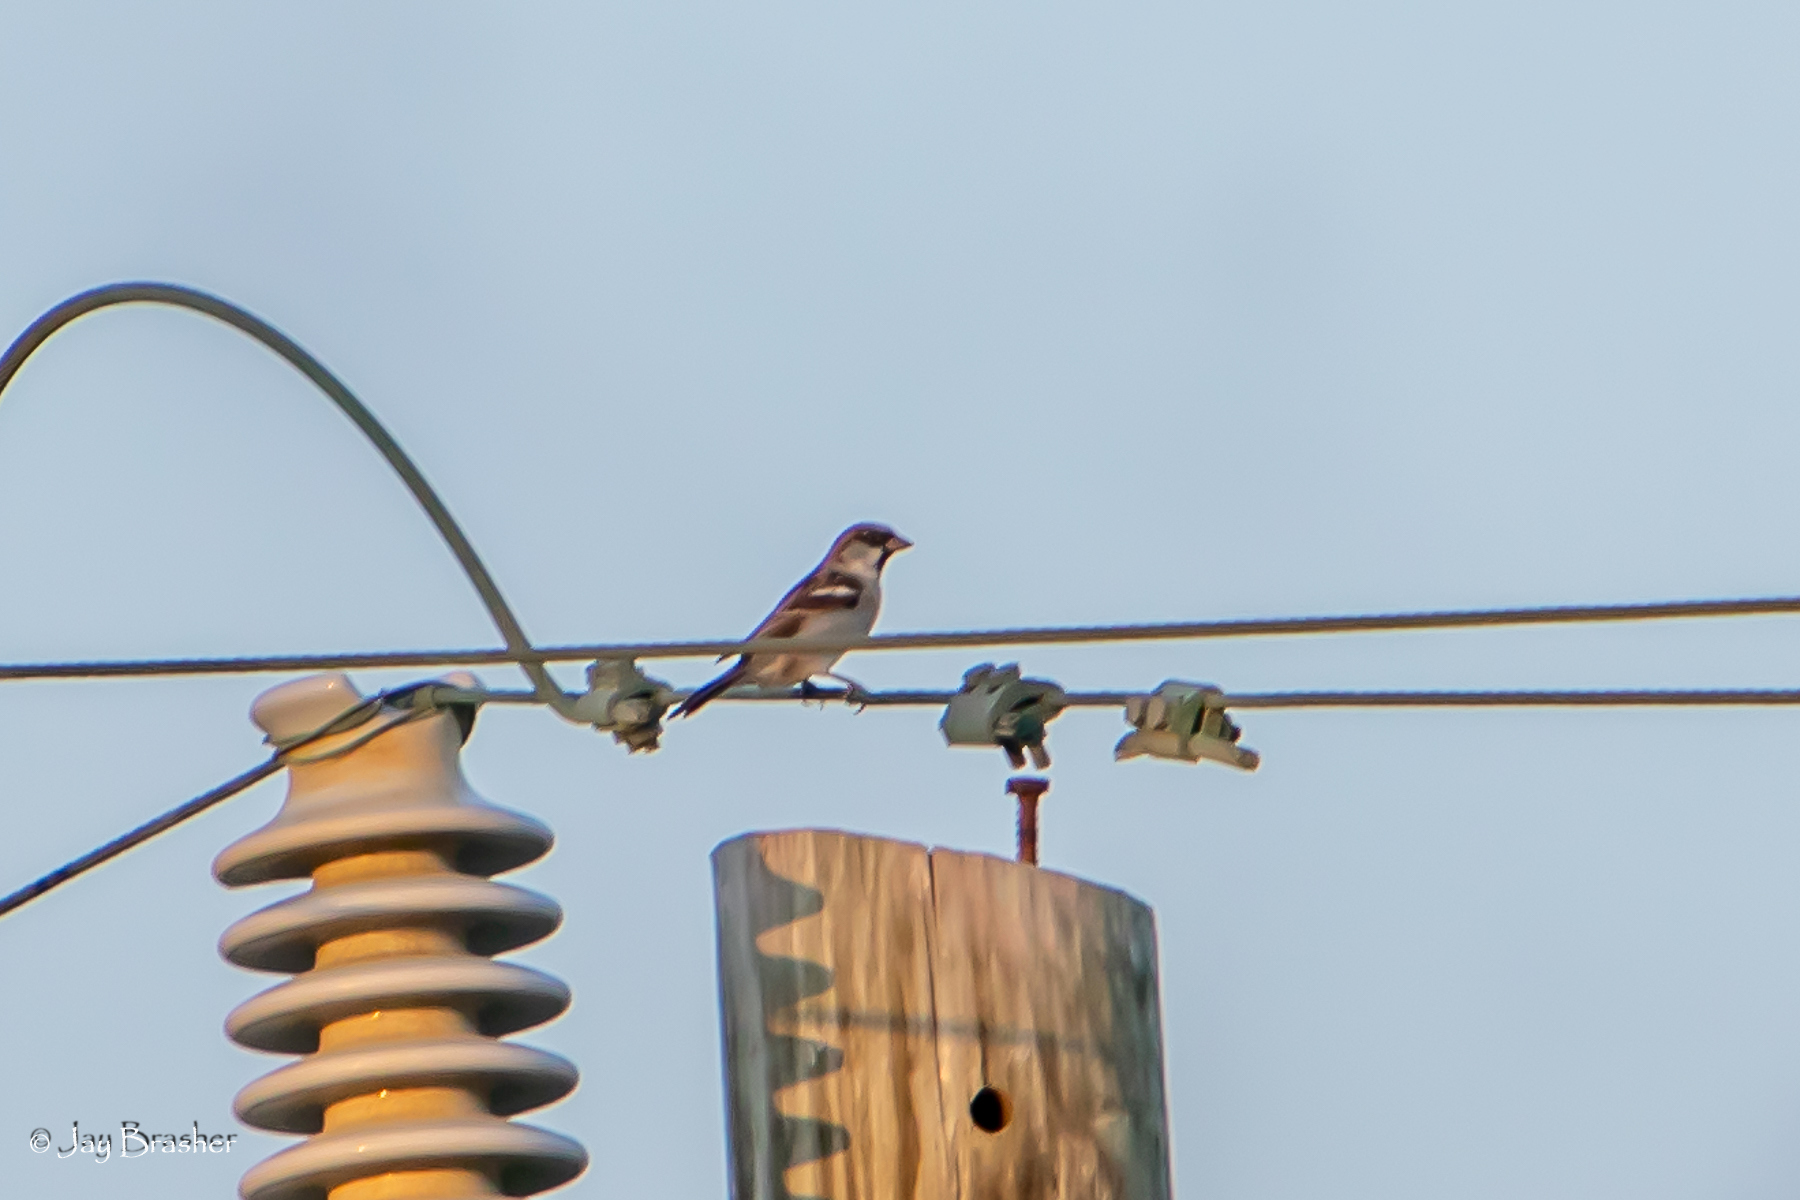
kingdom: Animalia
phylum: Chordata
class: Aves
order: Passeriformes
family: Passeridae
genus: Passer
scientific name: Passer domesticus
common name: House sparrow
